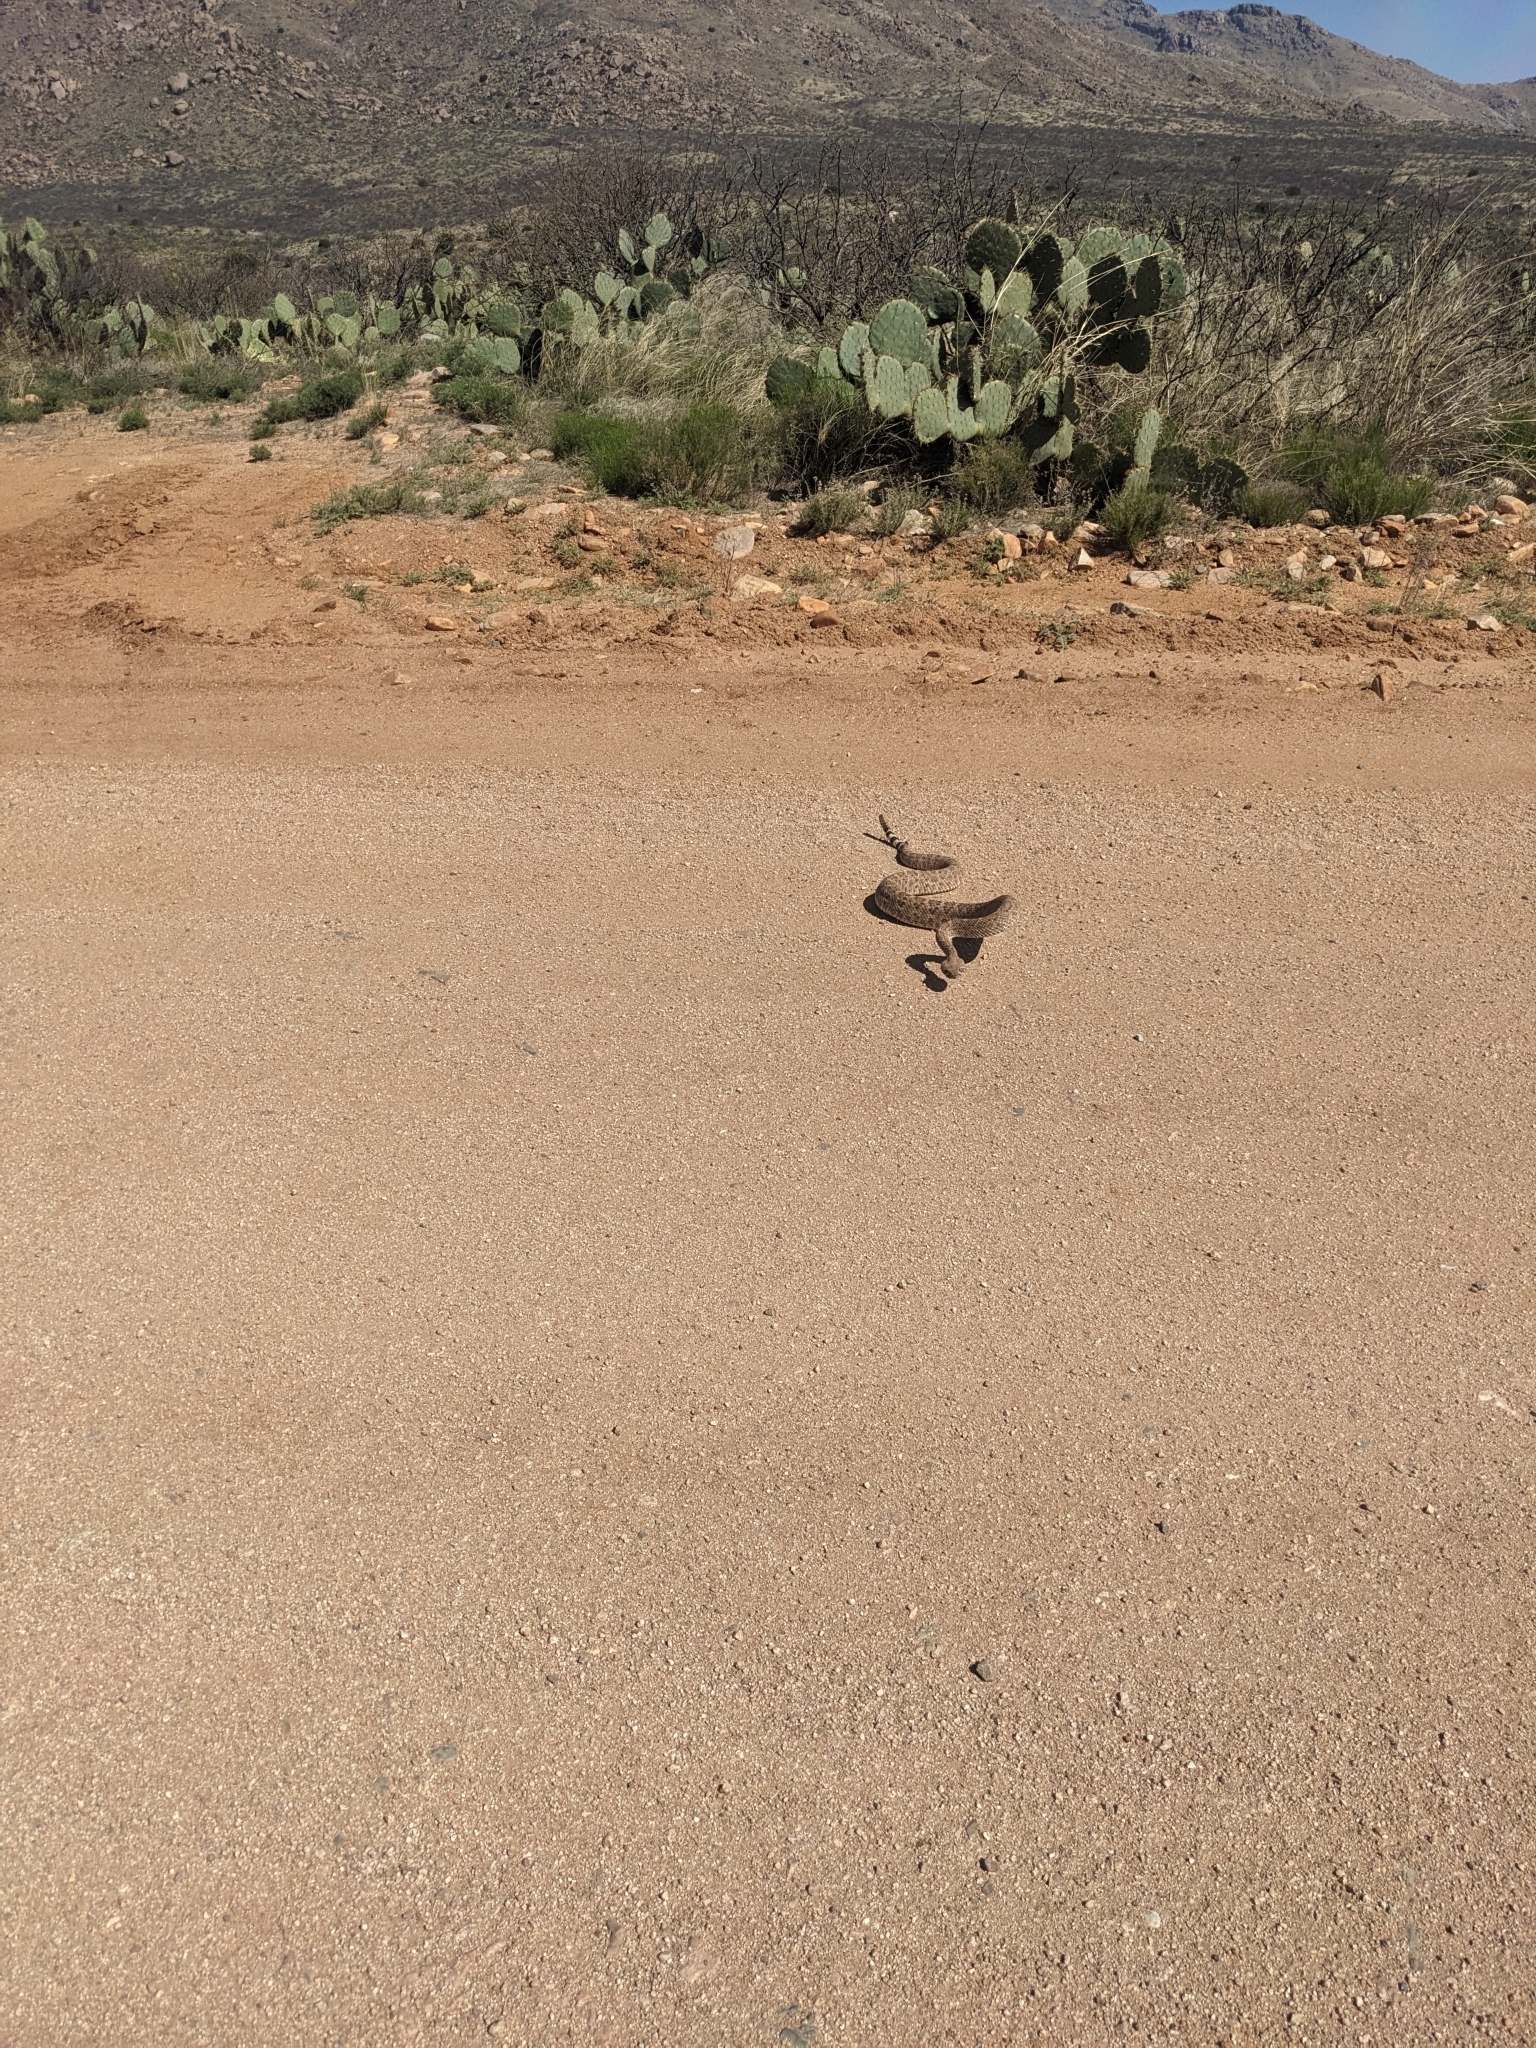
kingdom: Animalia
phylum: Chordata
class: Squamata
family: Viperidae
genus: Crotalus
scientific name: Crotalus atrox
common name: Western diamond-backed rattlesnake
